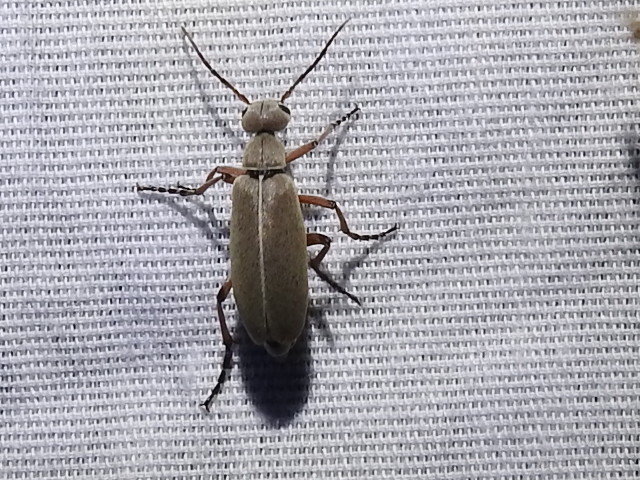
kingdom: Animalia
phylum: Arthropoda
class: Insecta
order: Coleoptera
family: Meloidae
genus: Epicauta
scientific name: Epicauta nigritarsis
